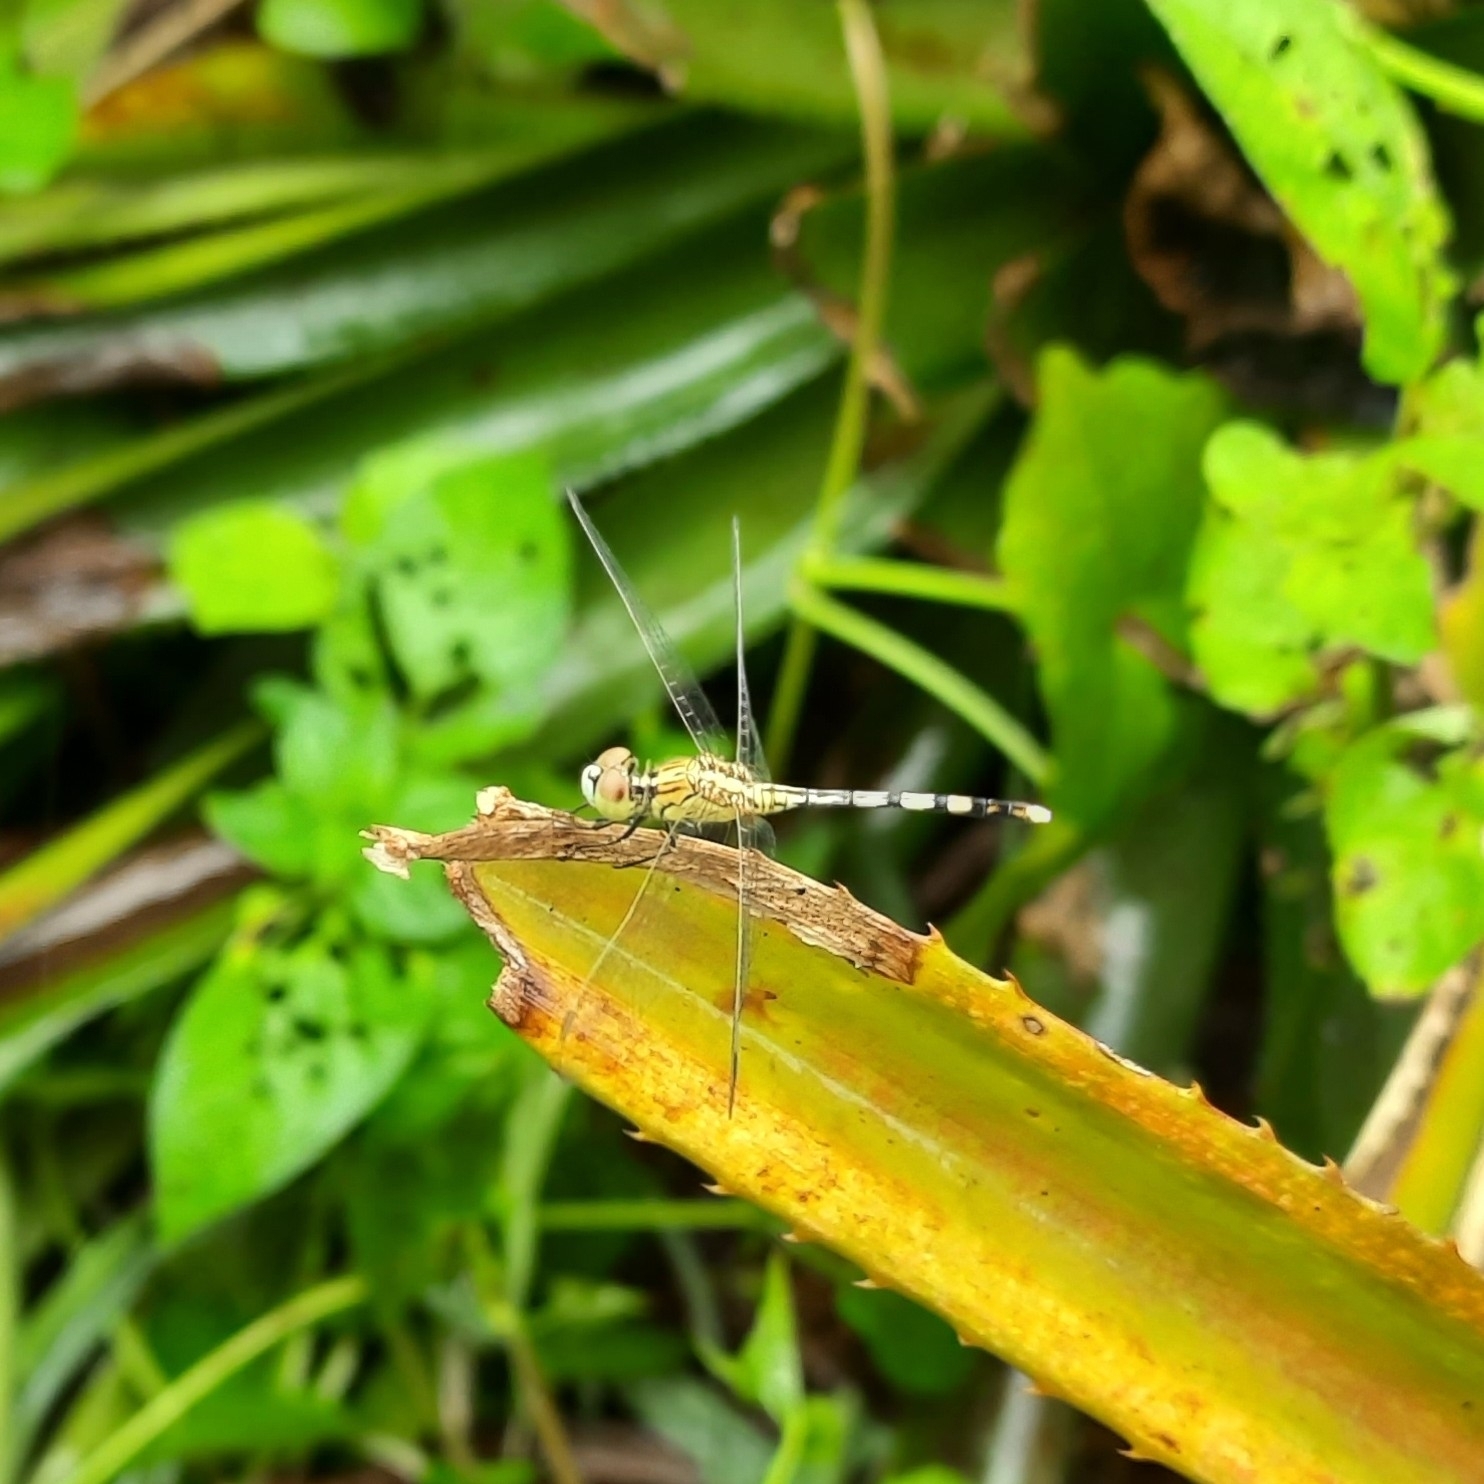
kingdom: Animalia
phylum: Arthropoda
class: Insecta
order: Odonata
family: Libellulidae
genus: Diplacodes
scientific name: Diplacodes trivialis
